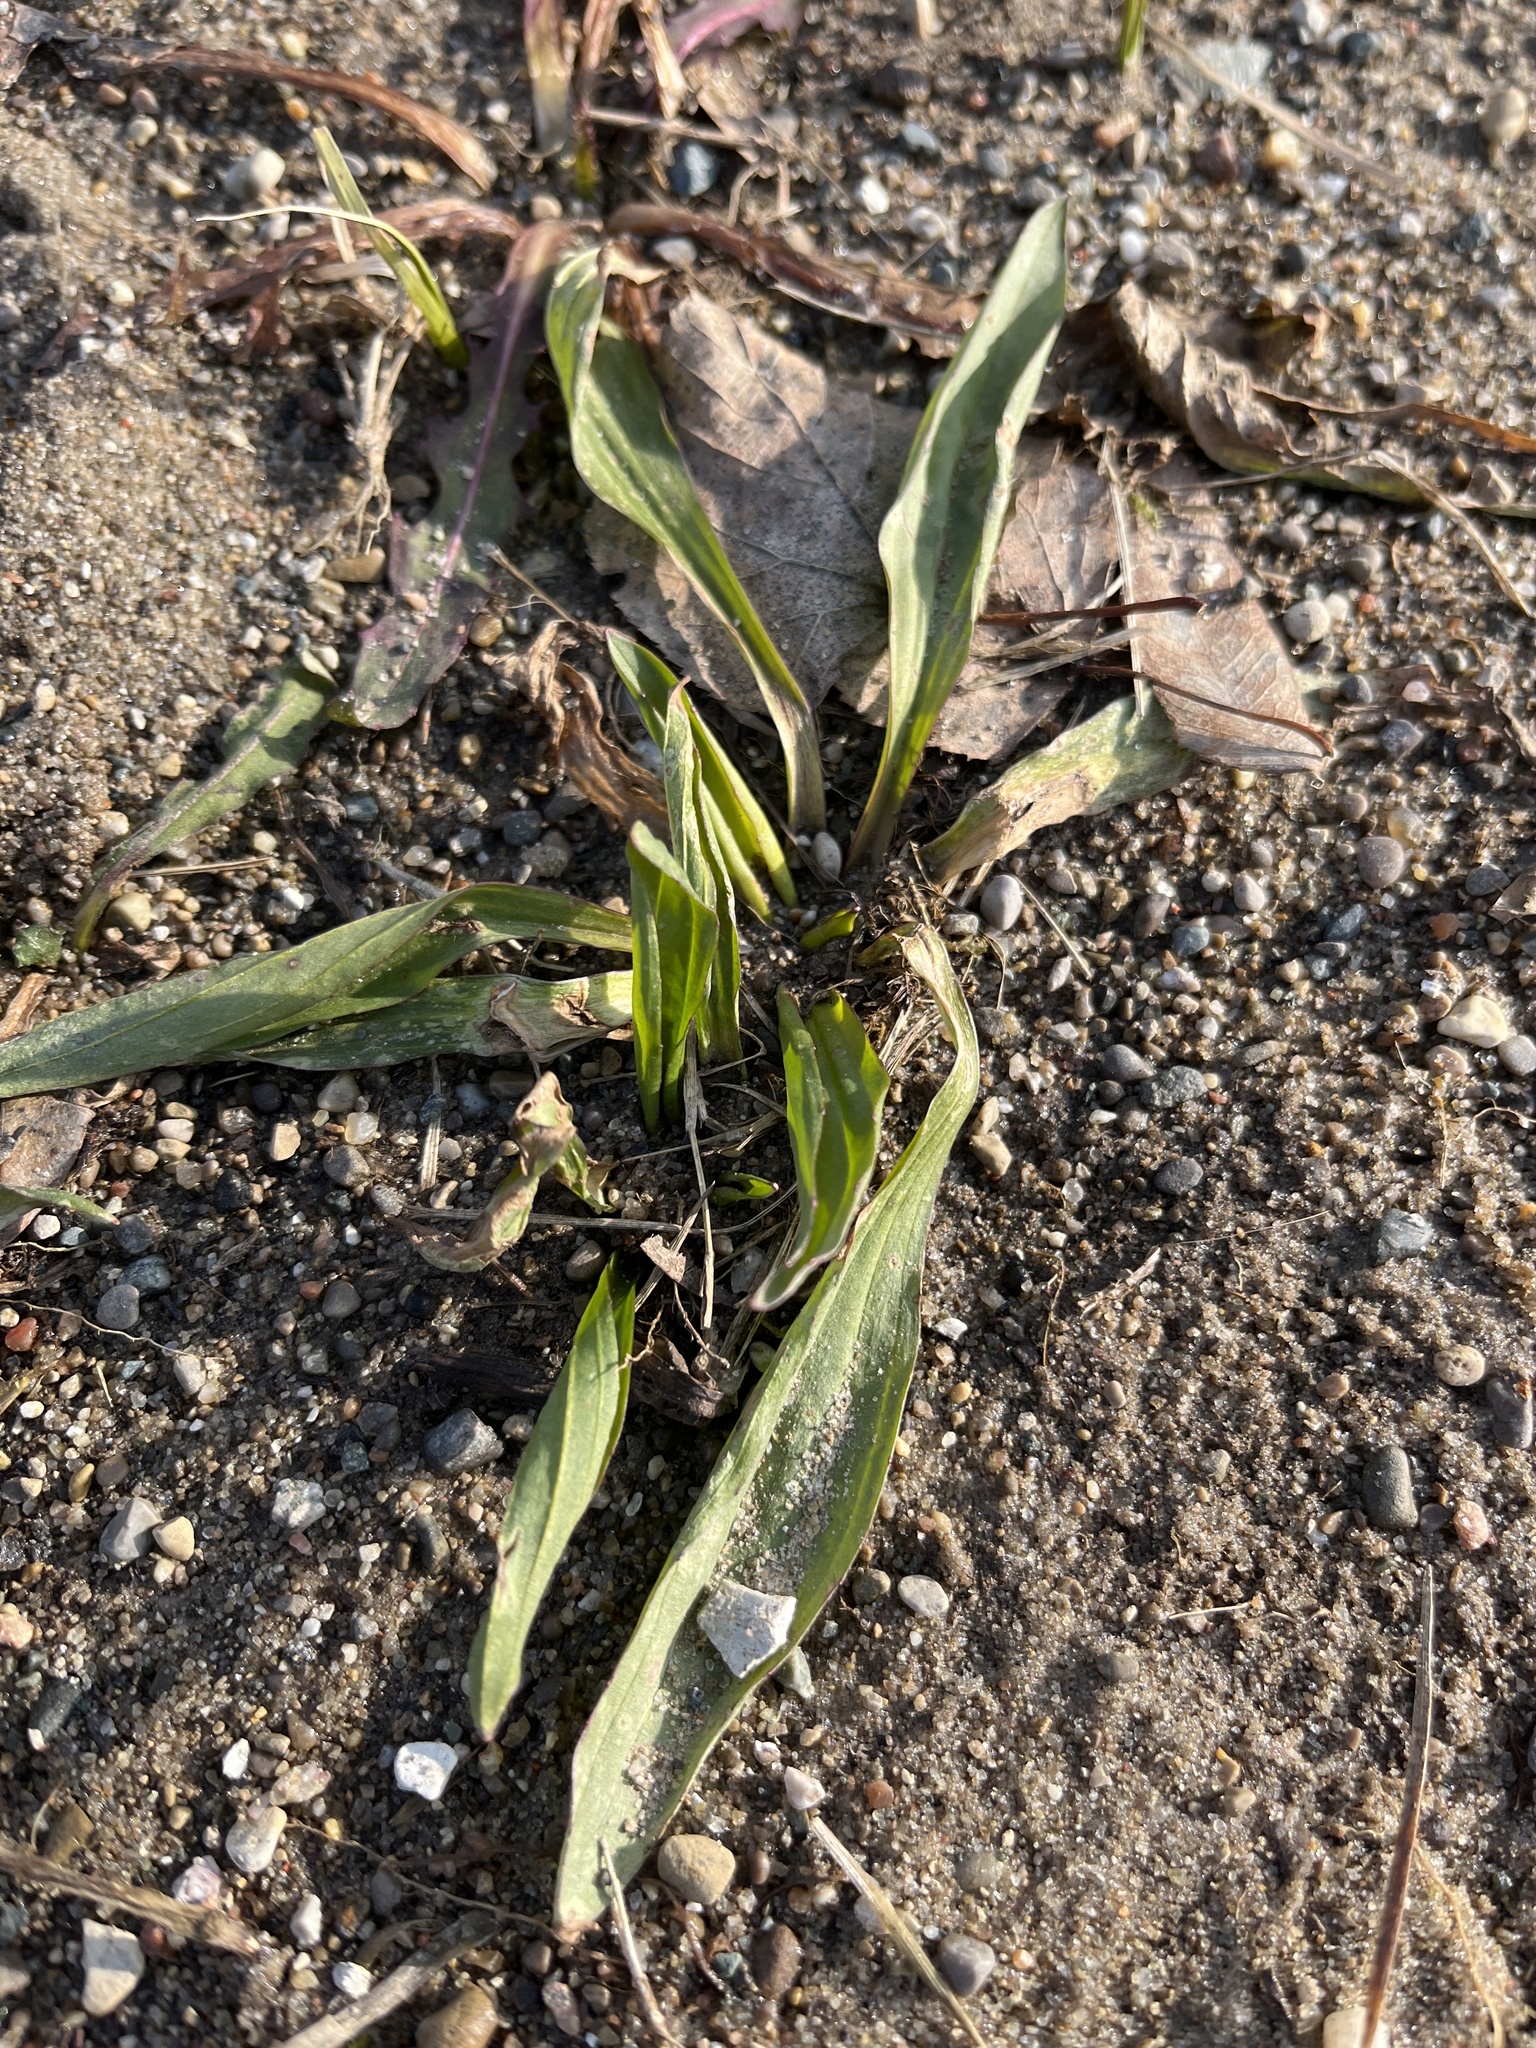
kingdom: Plantae
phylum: Tracheophyta
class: Magnoliopsida
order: Lamiales
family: Plantaginaceae
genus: Plantago
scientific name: Plantago lanceolata
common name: Ribwort plantain
